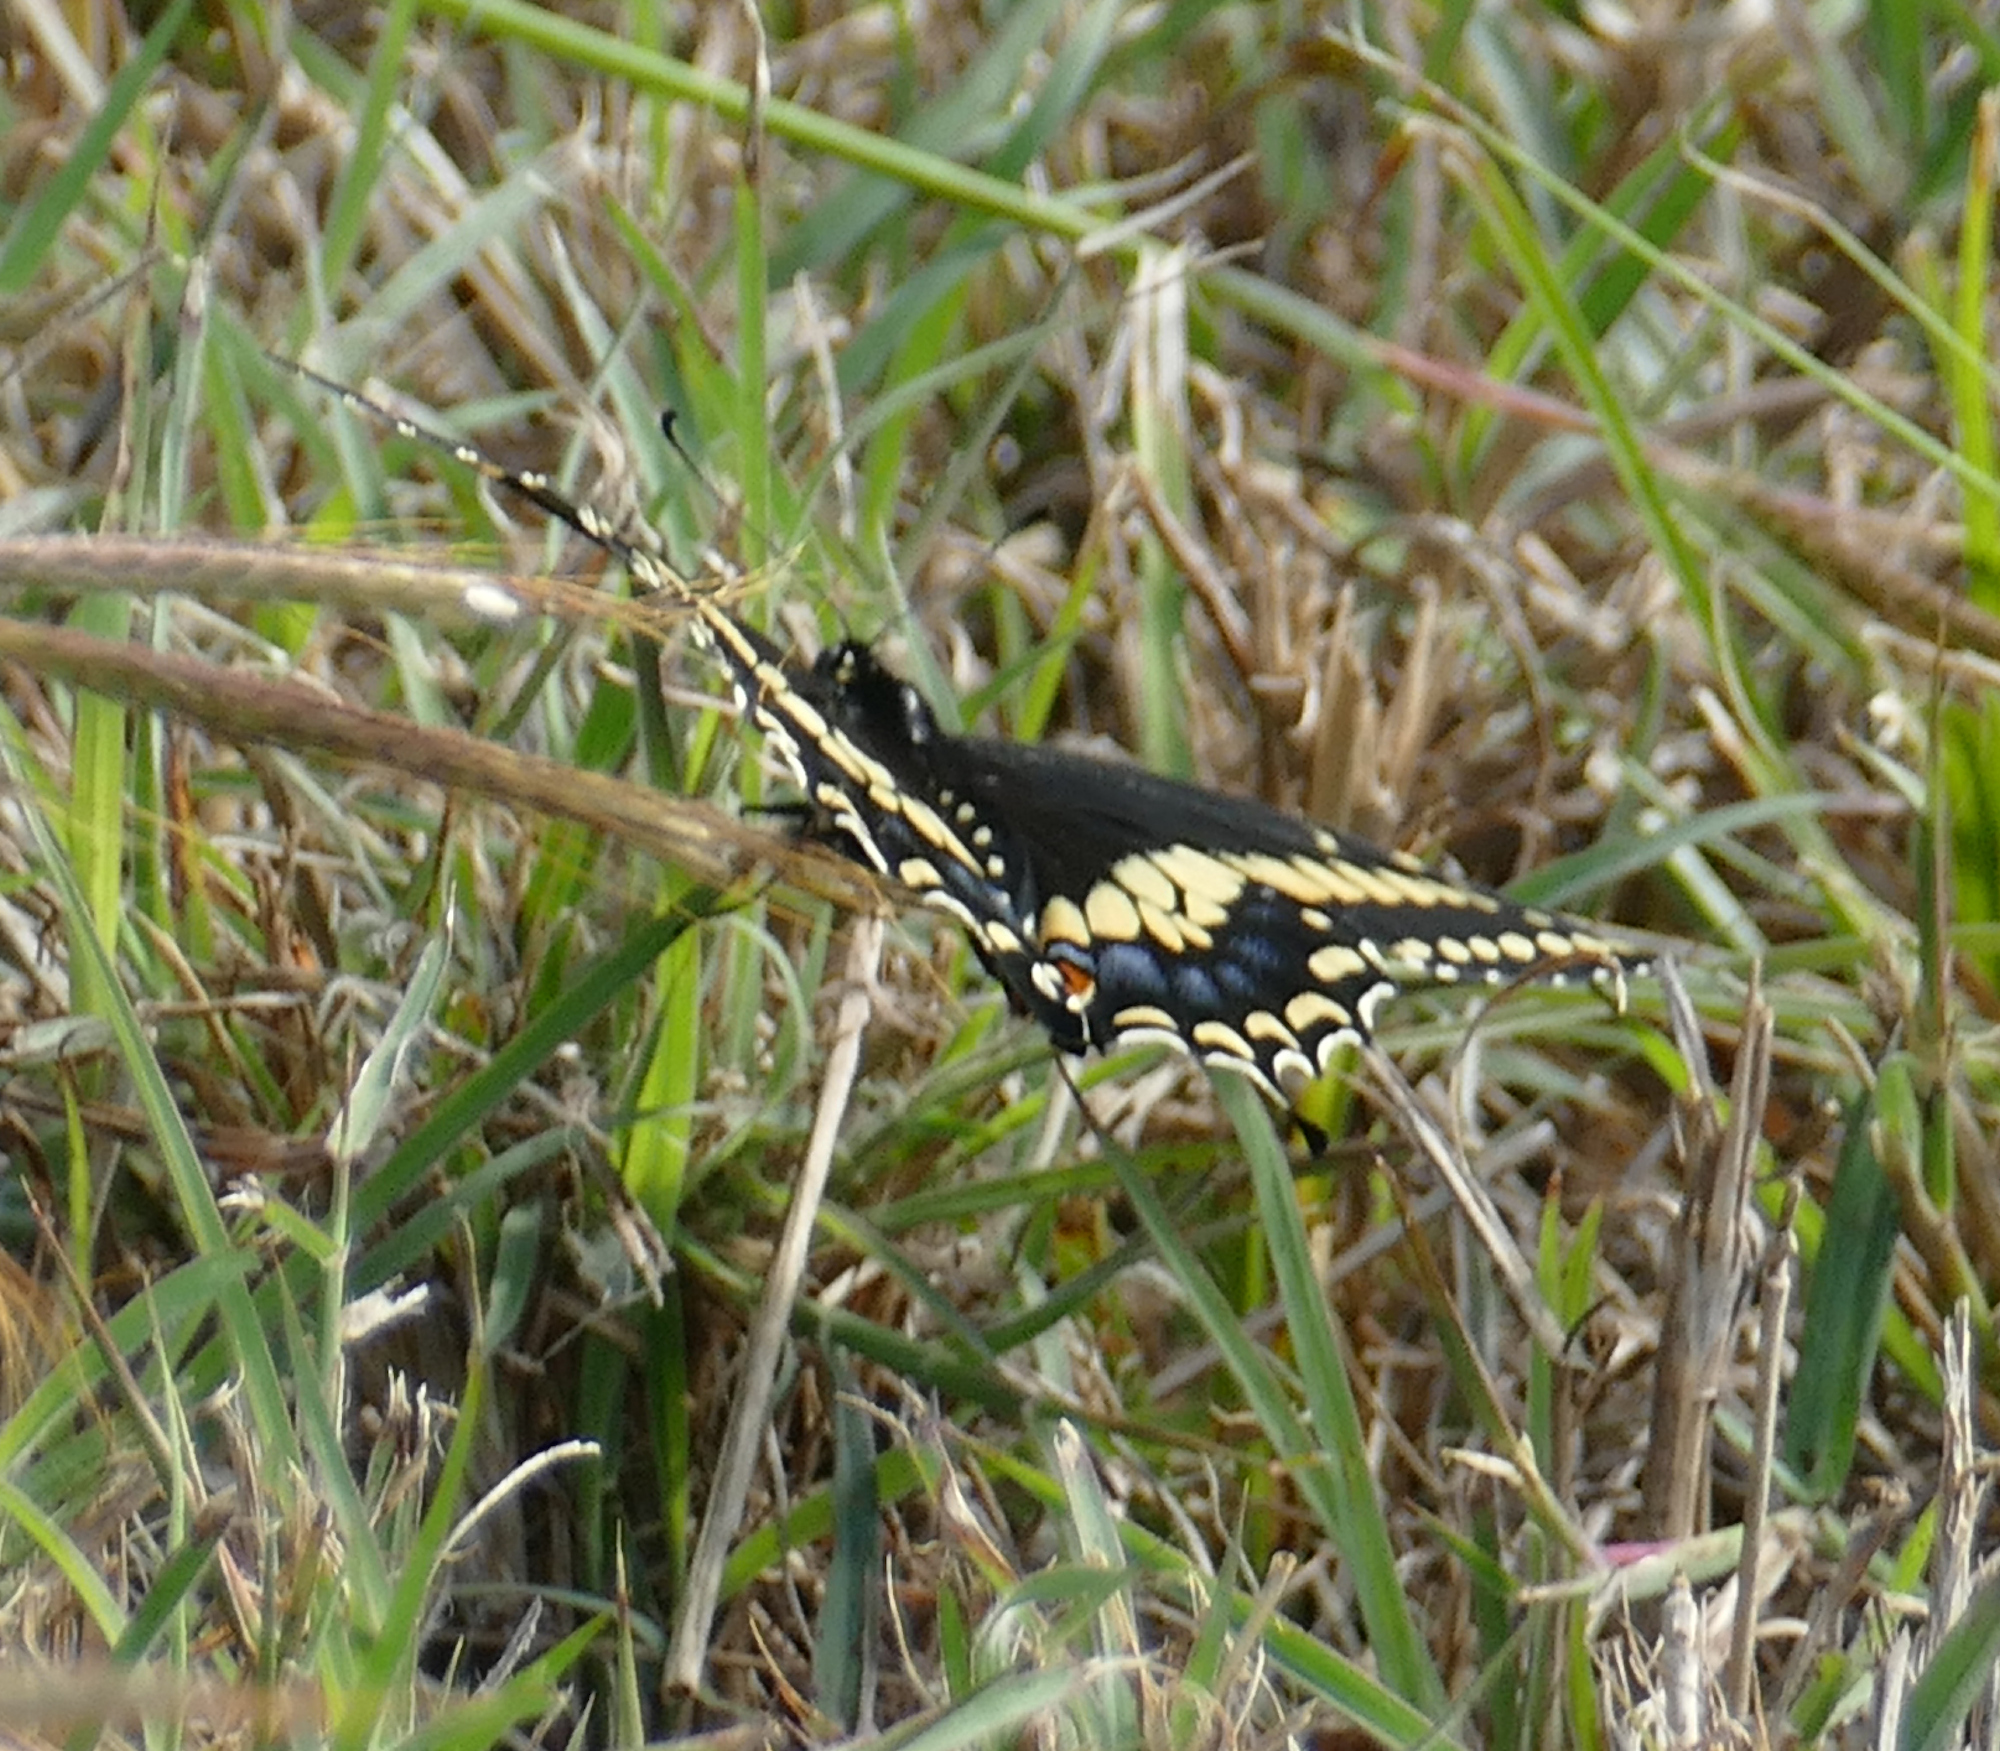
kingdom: Animalia
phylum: Arthropoda
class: Insecta
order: Lepidoptera
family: Papilionidae
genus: Papilio
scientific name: Papilio polyxenes
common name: Black swallowtail
